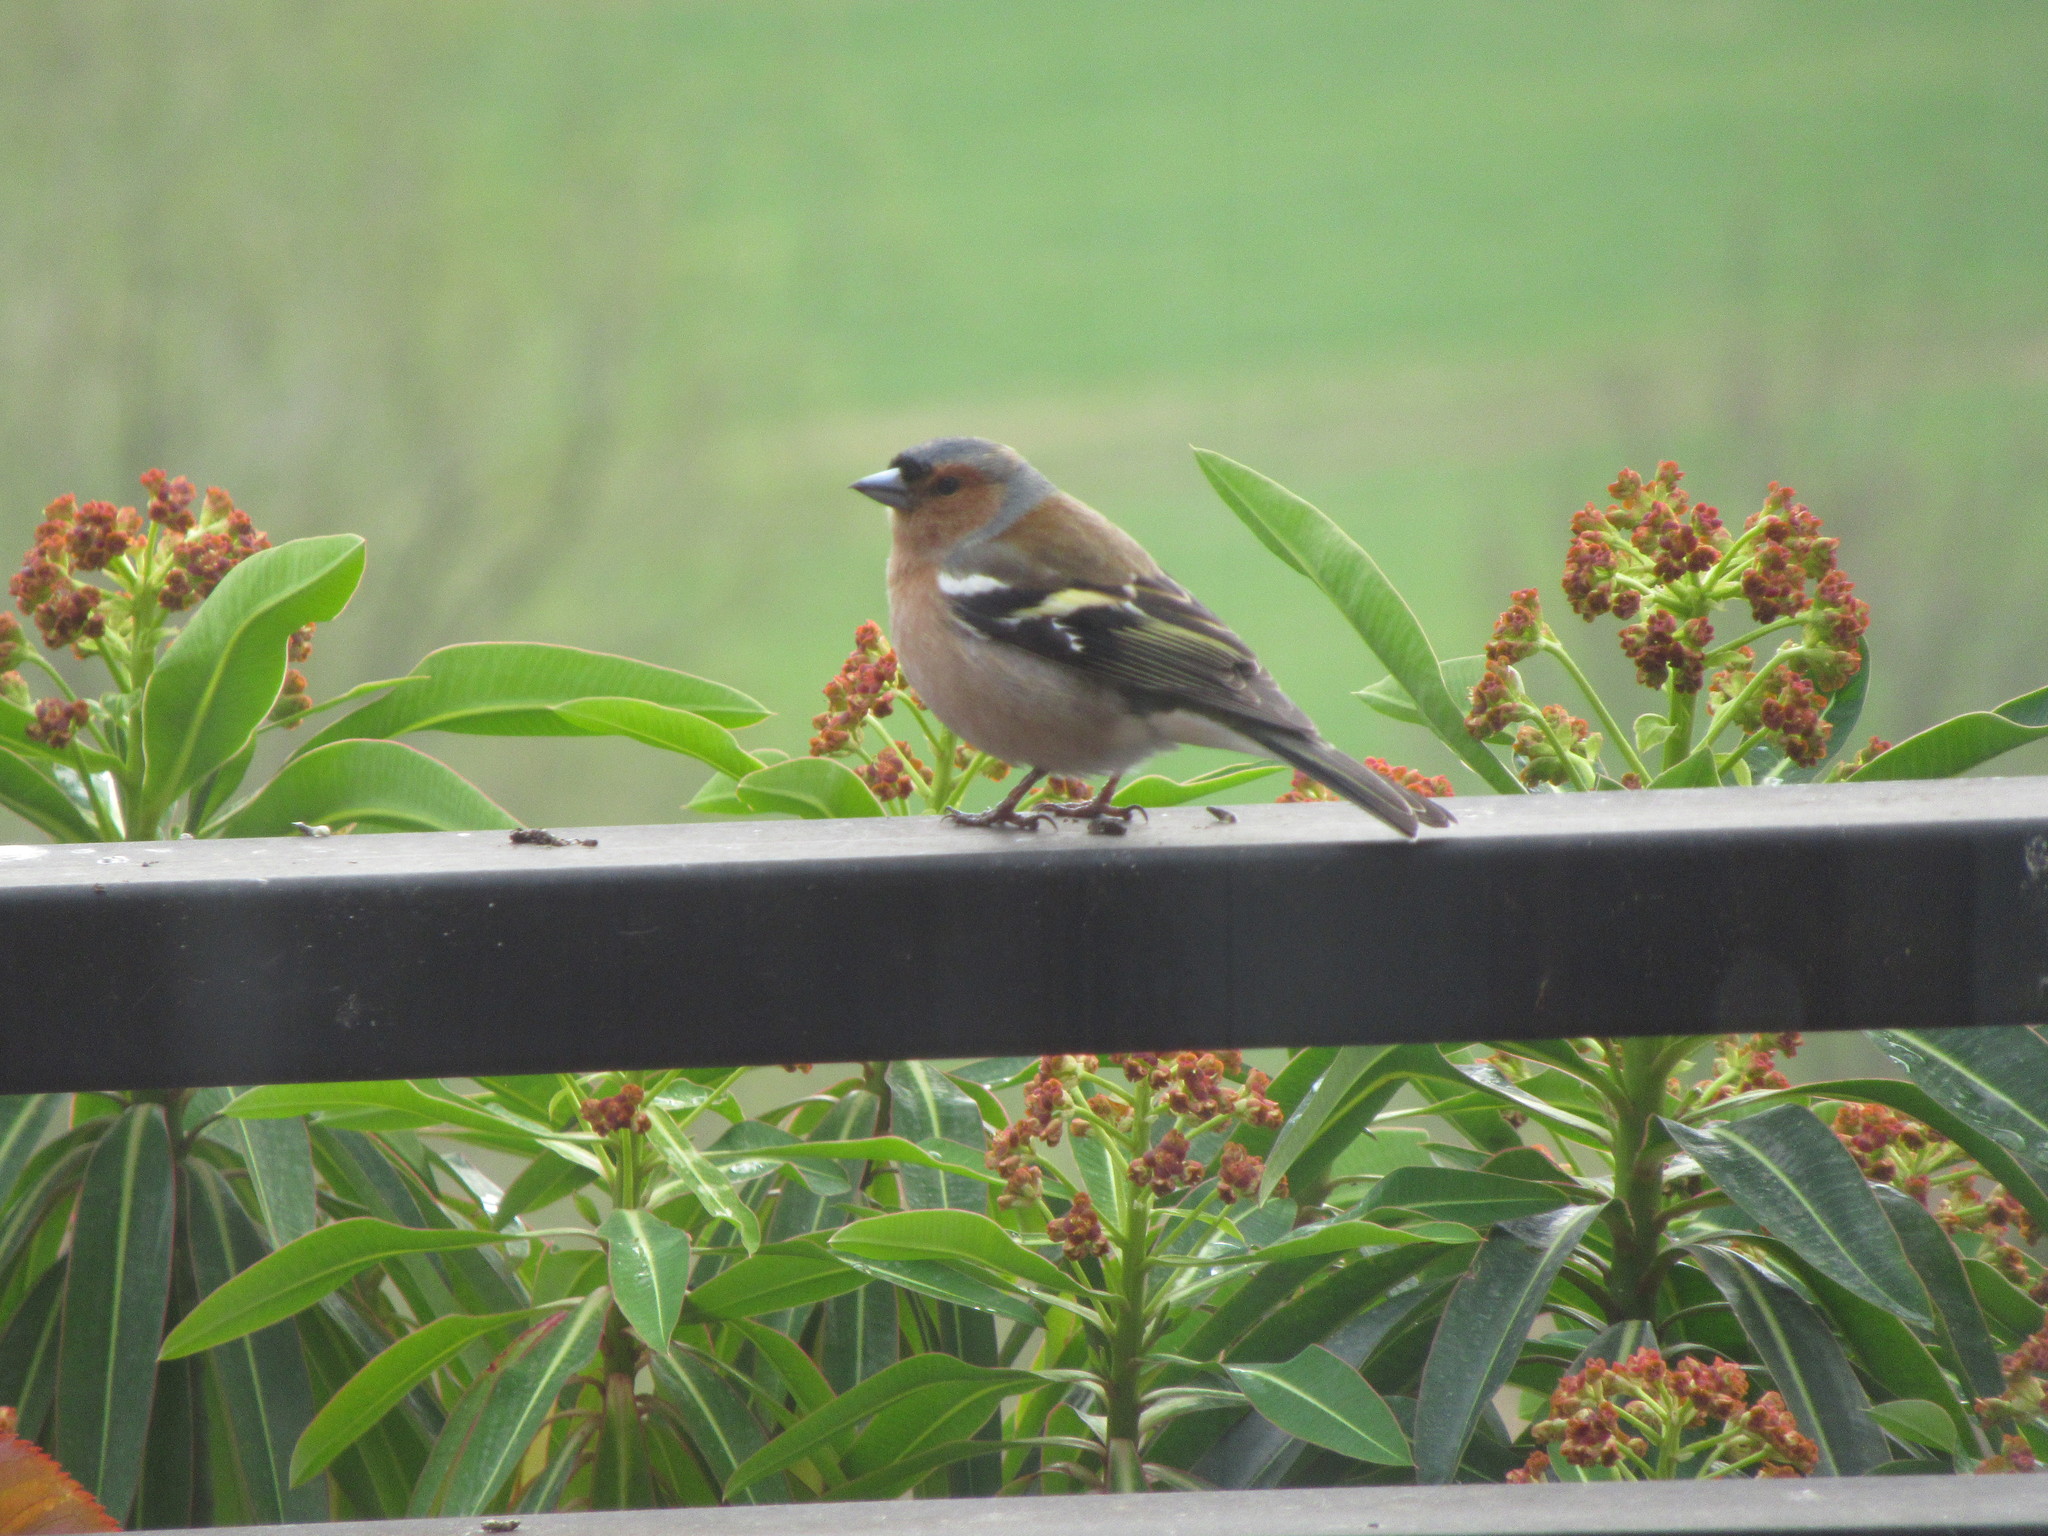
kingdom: Animalia
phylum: Chordata
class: Aves
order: Passeriformes
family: Fringillidae
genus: Fringilla
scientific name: Fringilla coelebs
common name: Common chaffinch
